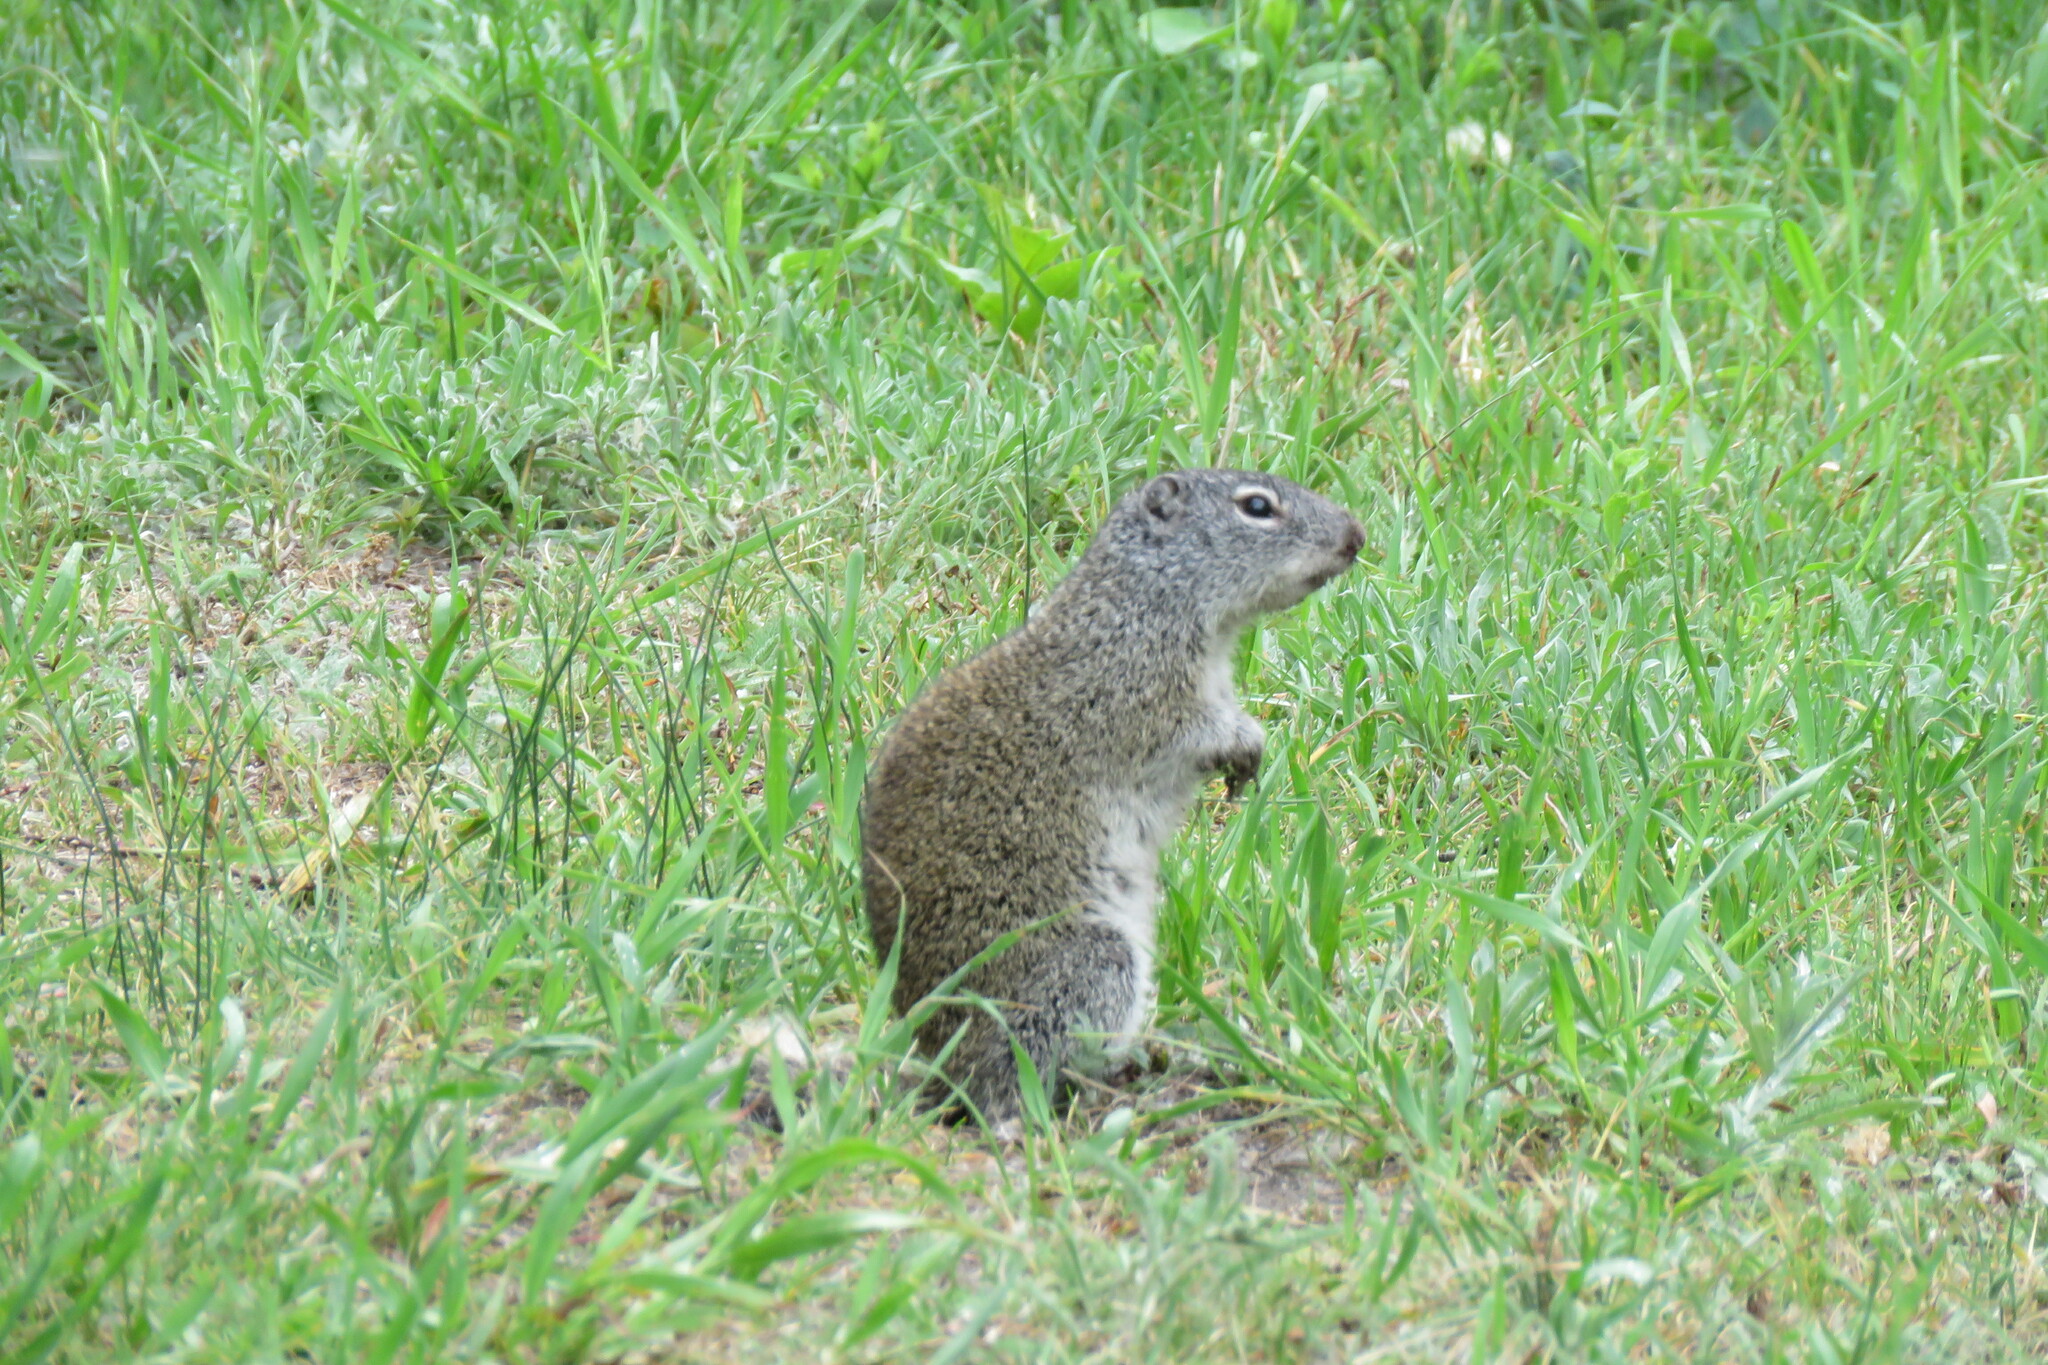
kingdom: Animalia
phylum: Chordata
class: Mammalia
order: Rodentia
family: Sciuridae
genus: Poliocitellus
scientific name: Poliocitellus franklinii
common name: Franklin's ground squirrel
